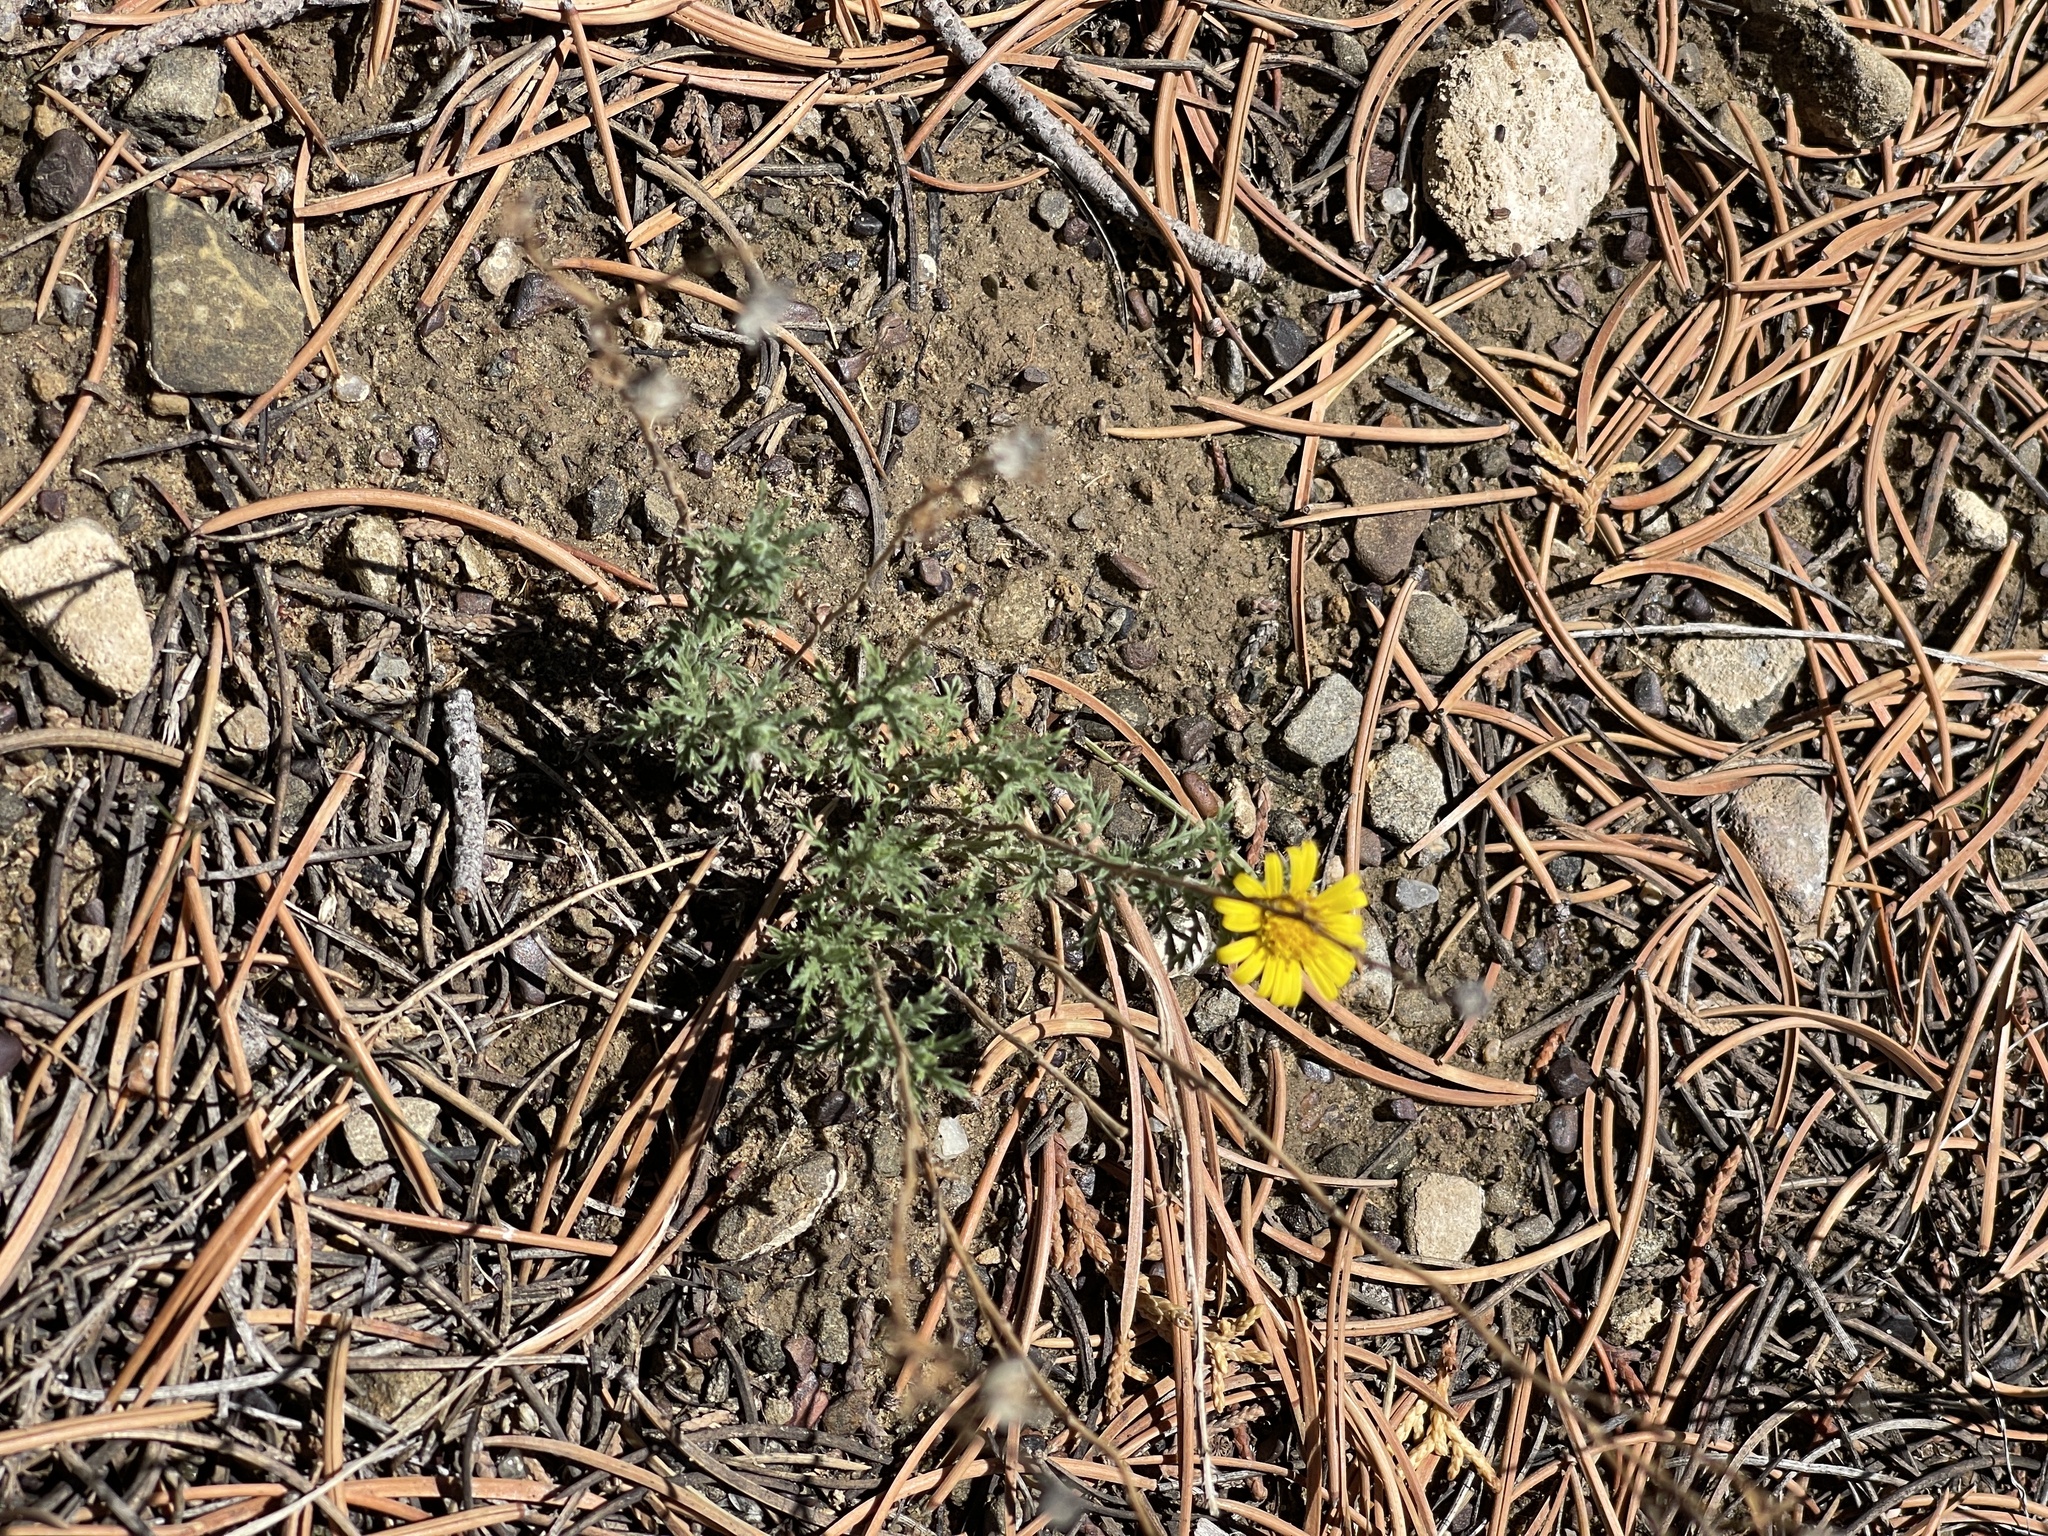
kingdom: Plantae
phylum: Tracheophyta
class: Magnoliopsida
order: Asterales
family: Asteraceae
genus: Hymenothrix
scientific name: Hymenothrix dissecta
